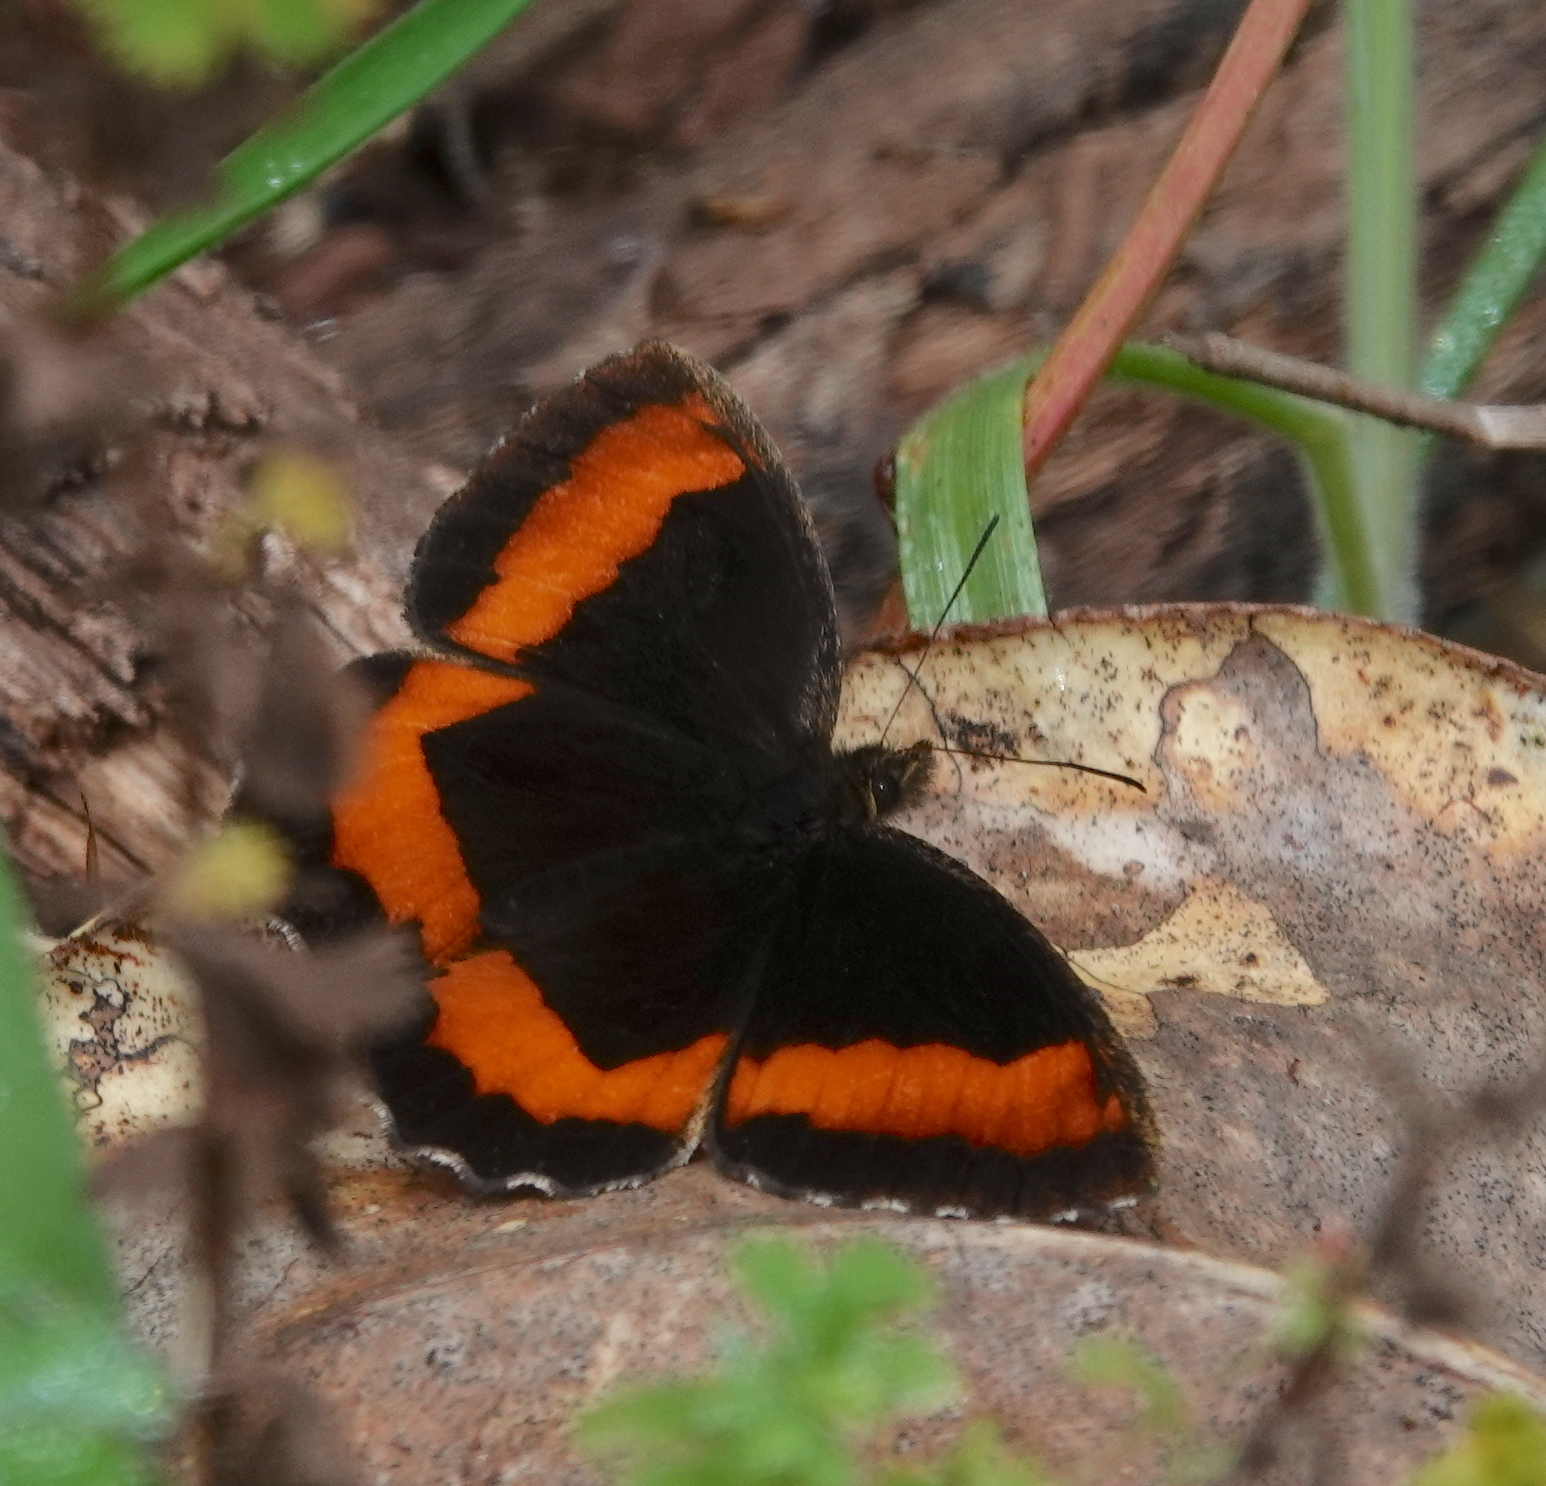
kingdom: Animalia
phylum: Arthropoda
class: Insecta
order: Lepidoptera
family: Nymphalidae
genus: Pedaliodes
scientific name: Pedaliodes zuleta
